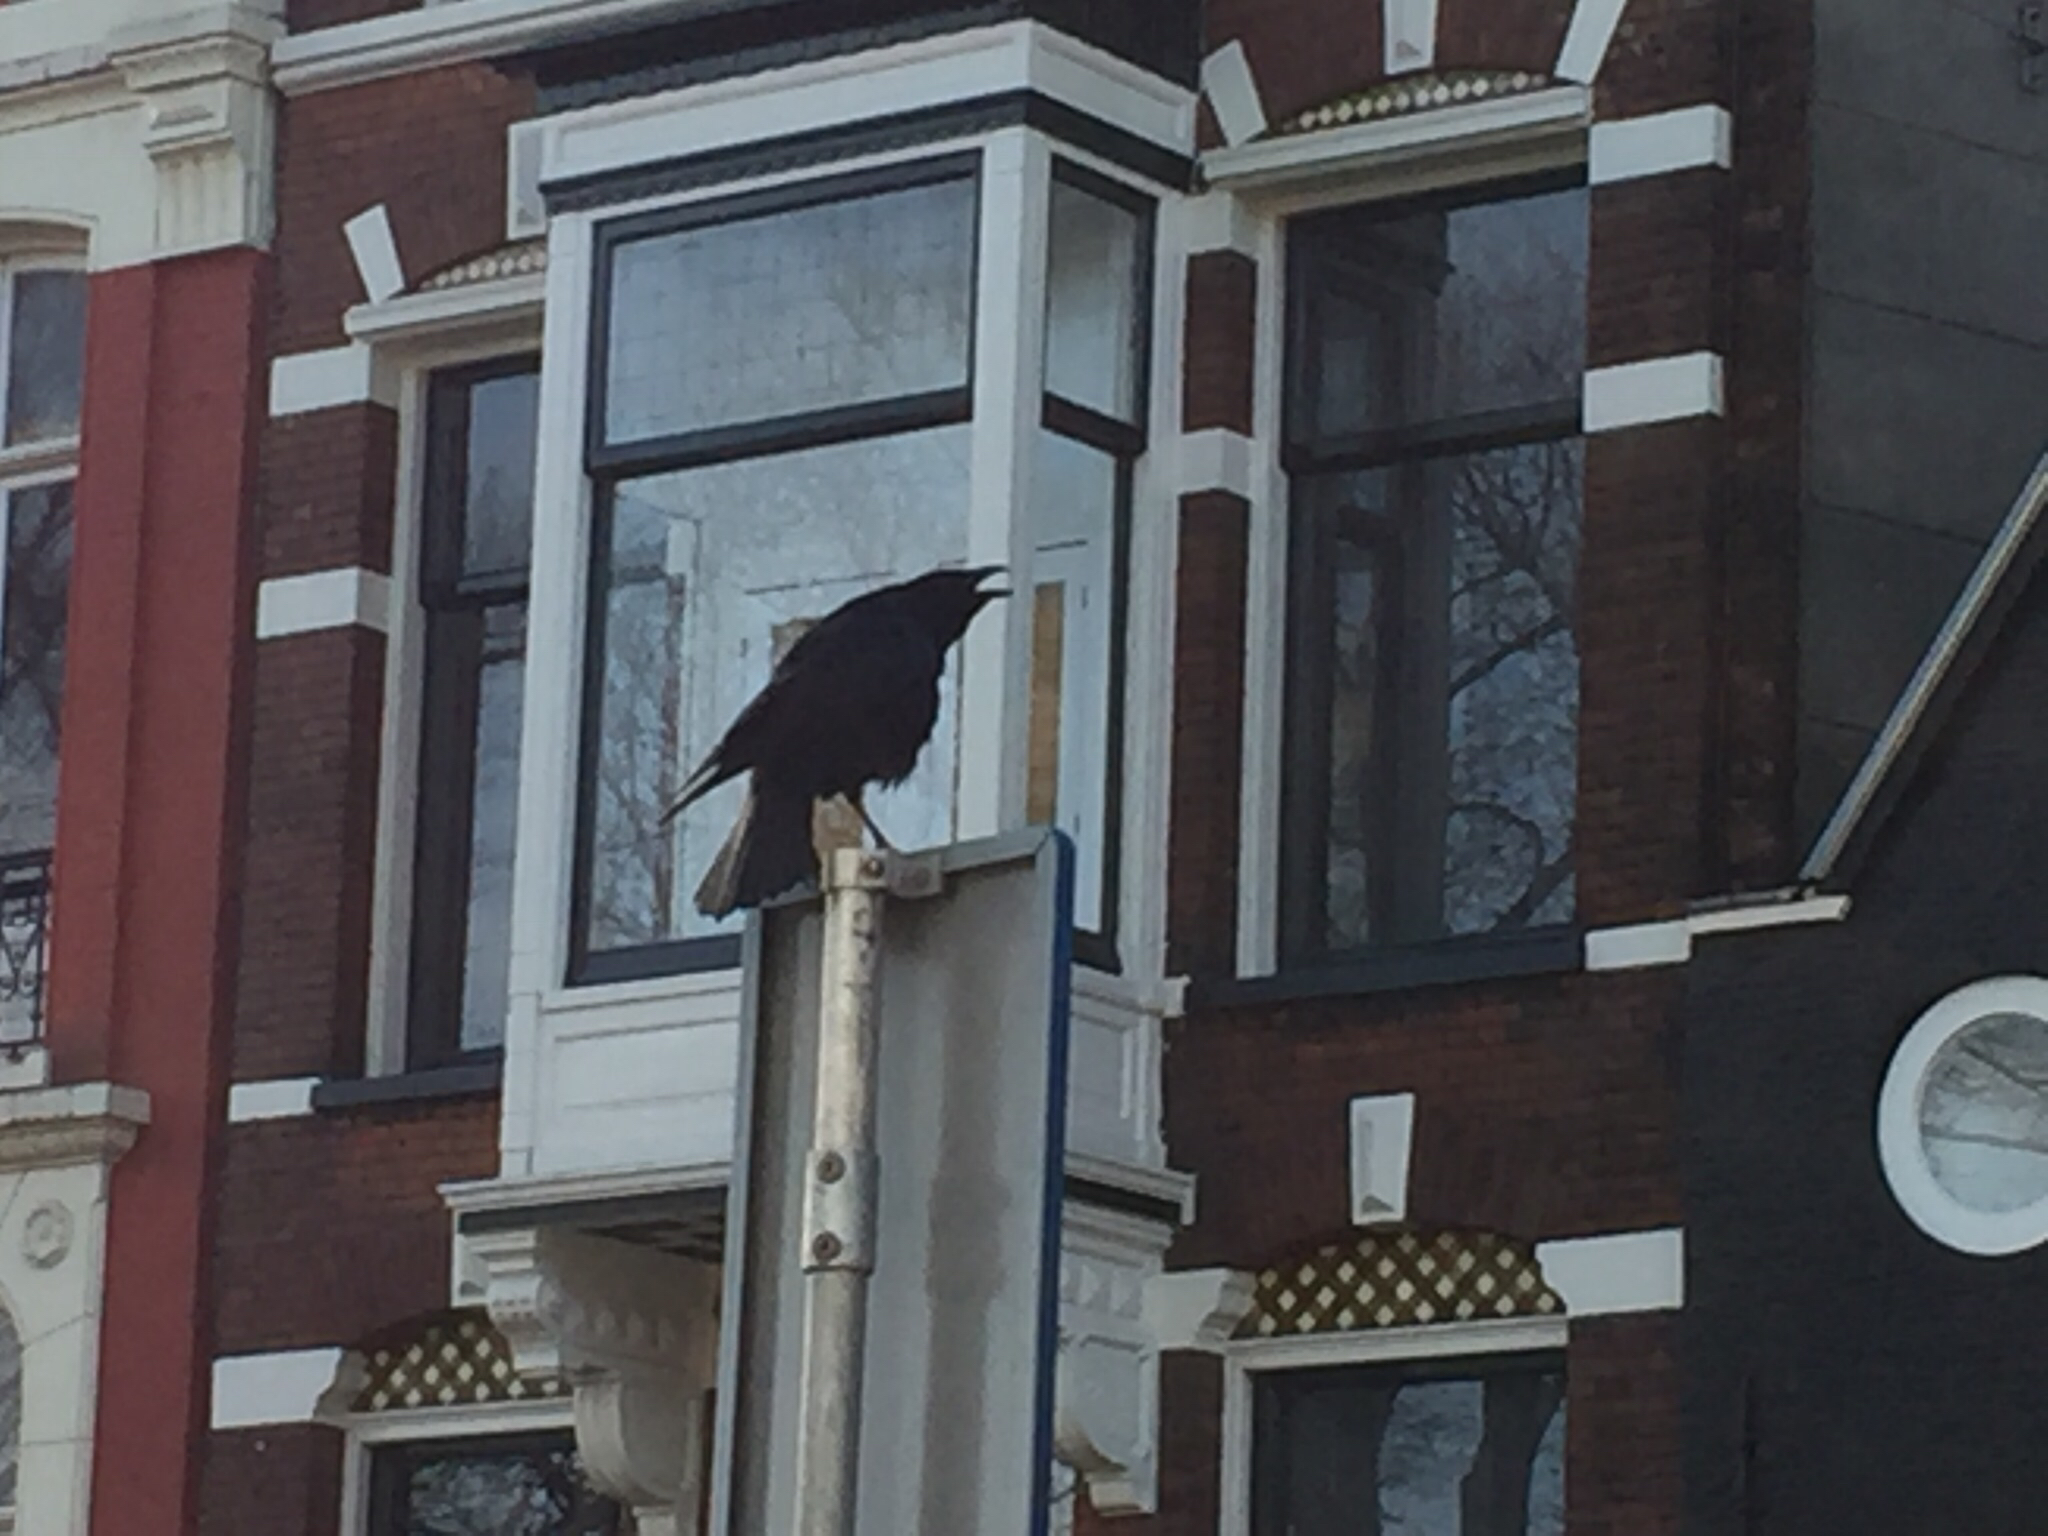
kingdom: Animalia
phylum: Chordata
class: Aves
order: Passeriformes
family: Corvidae
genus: Corvus
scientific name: Corvus corone
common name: Carrion crow
